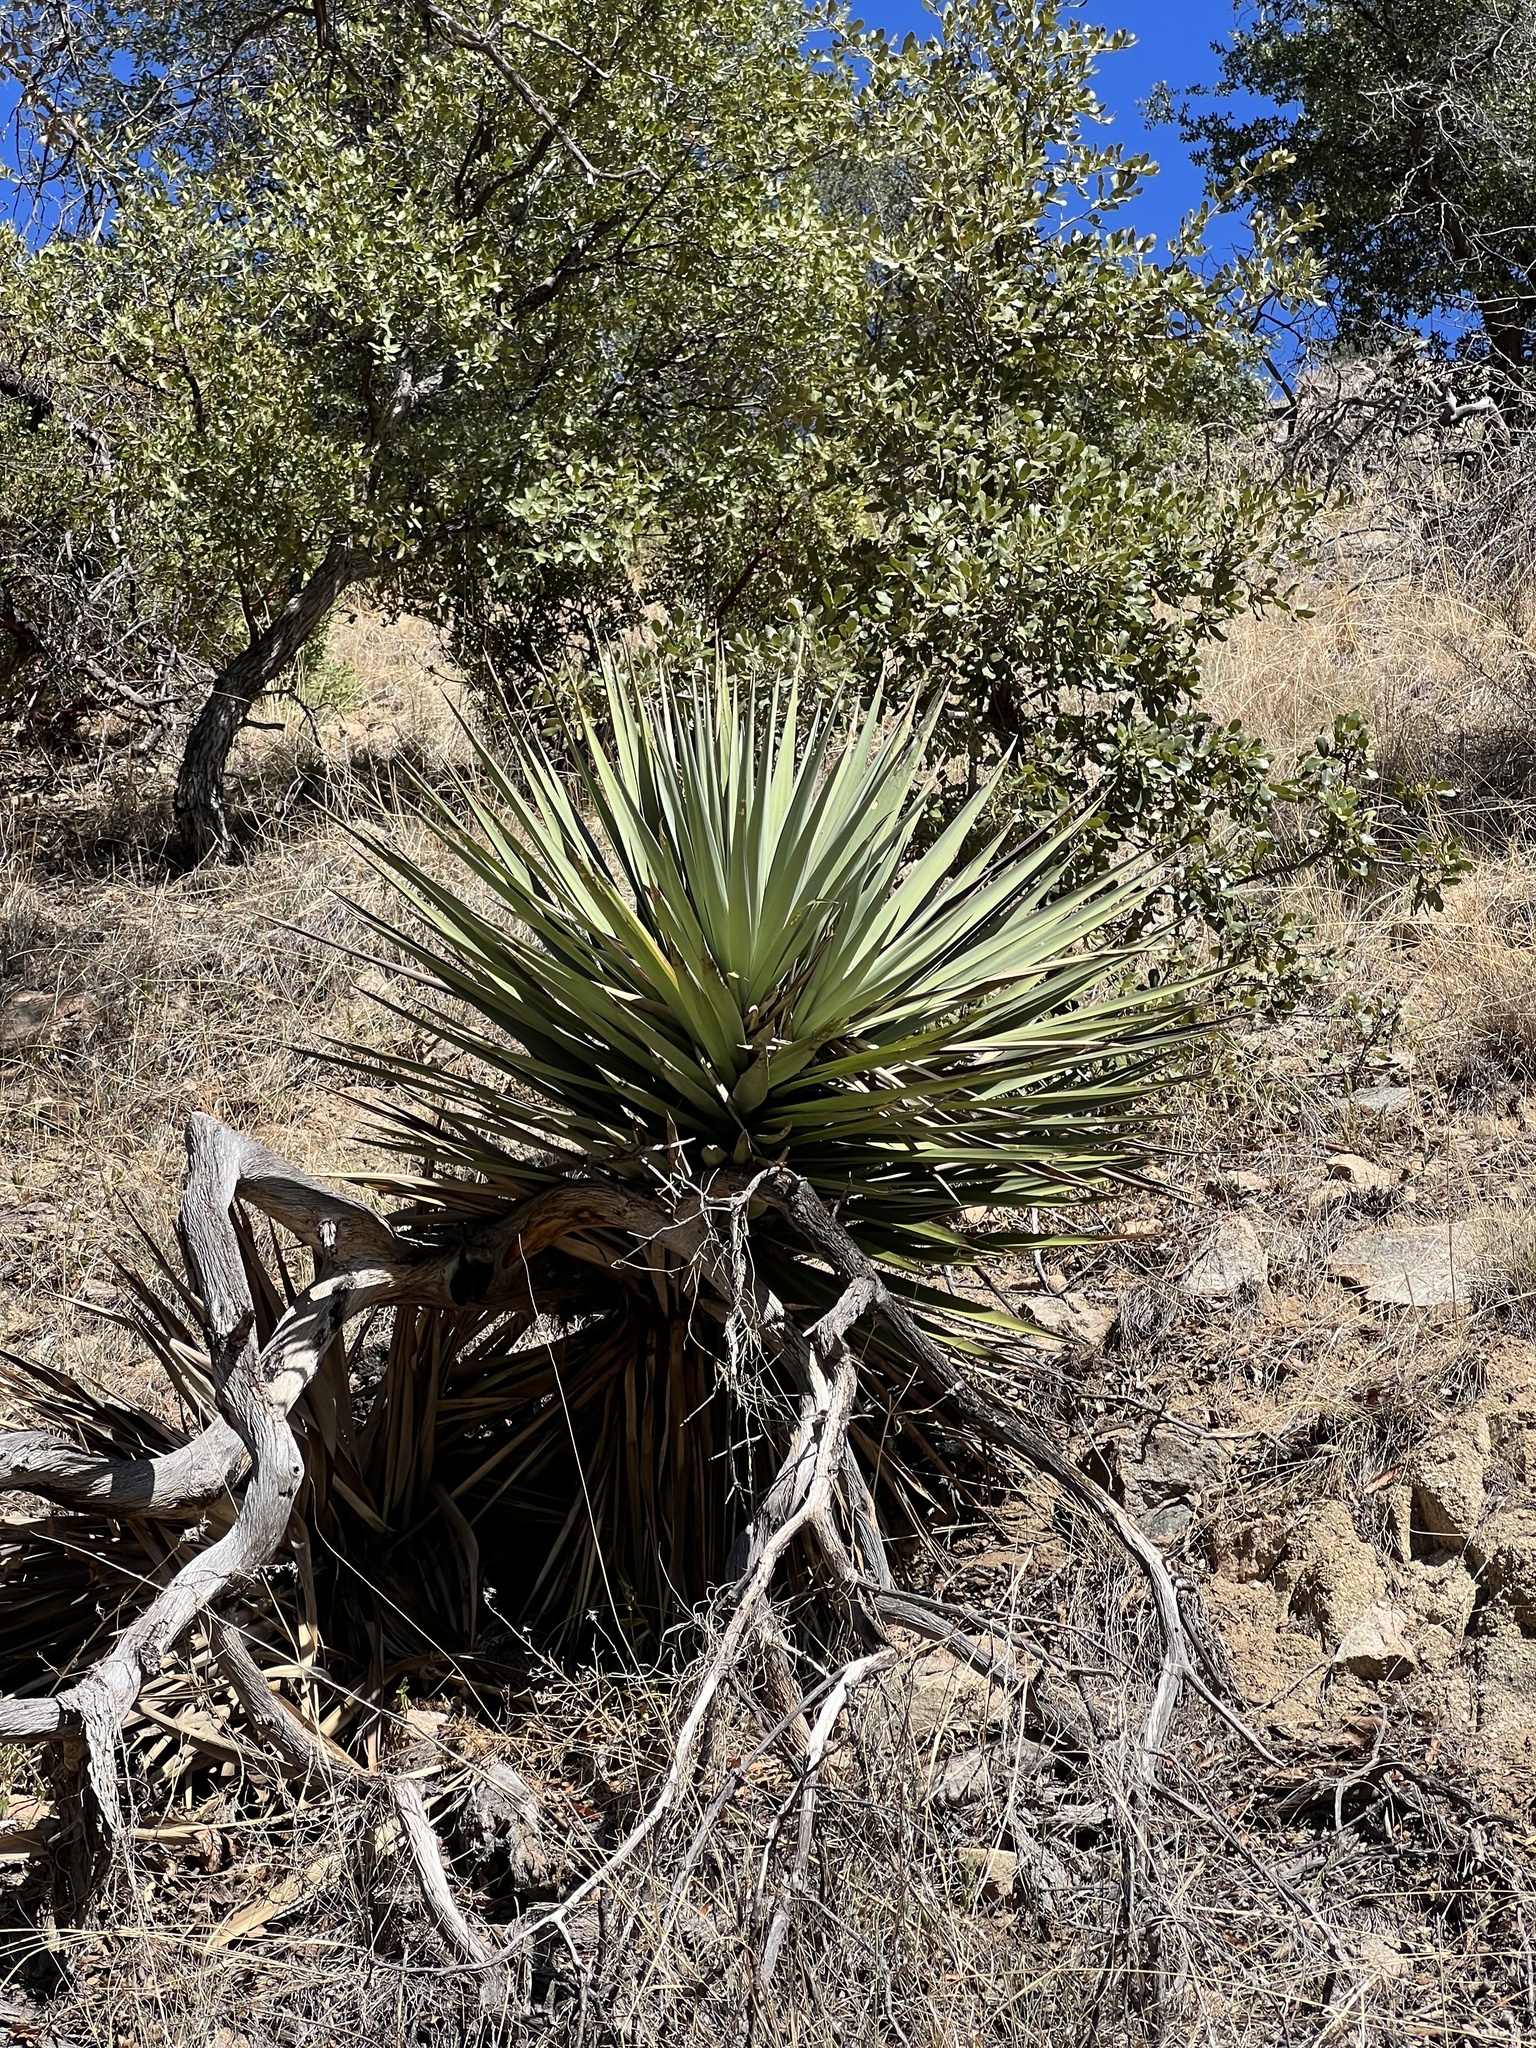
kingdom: Plantae
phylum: Tracheophyta
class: Liliopsida
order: Asparagales
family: Asparagaceae
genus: Yucca
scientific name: Yucca schottii
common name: Hoary yucca
